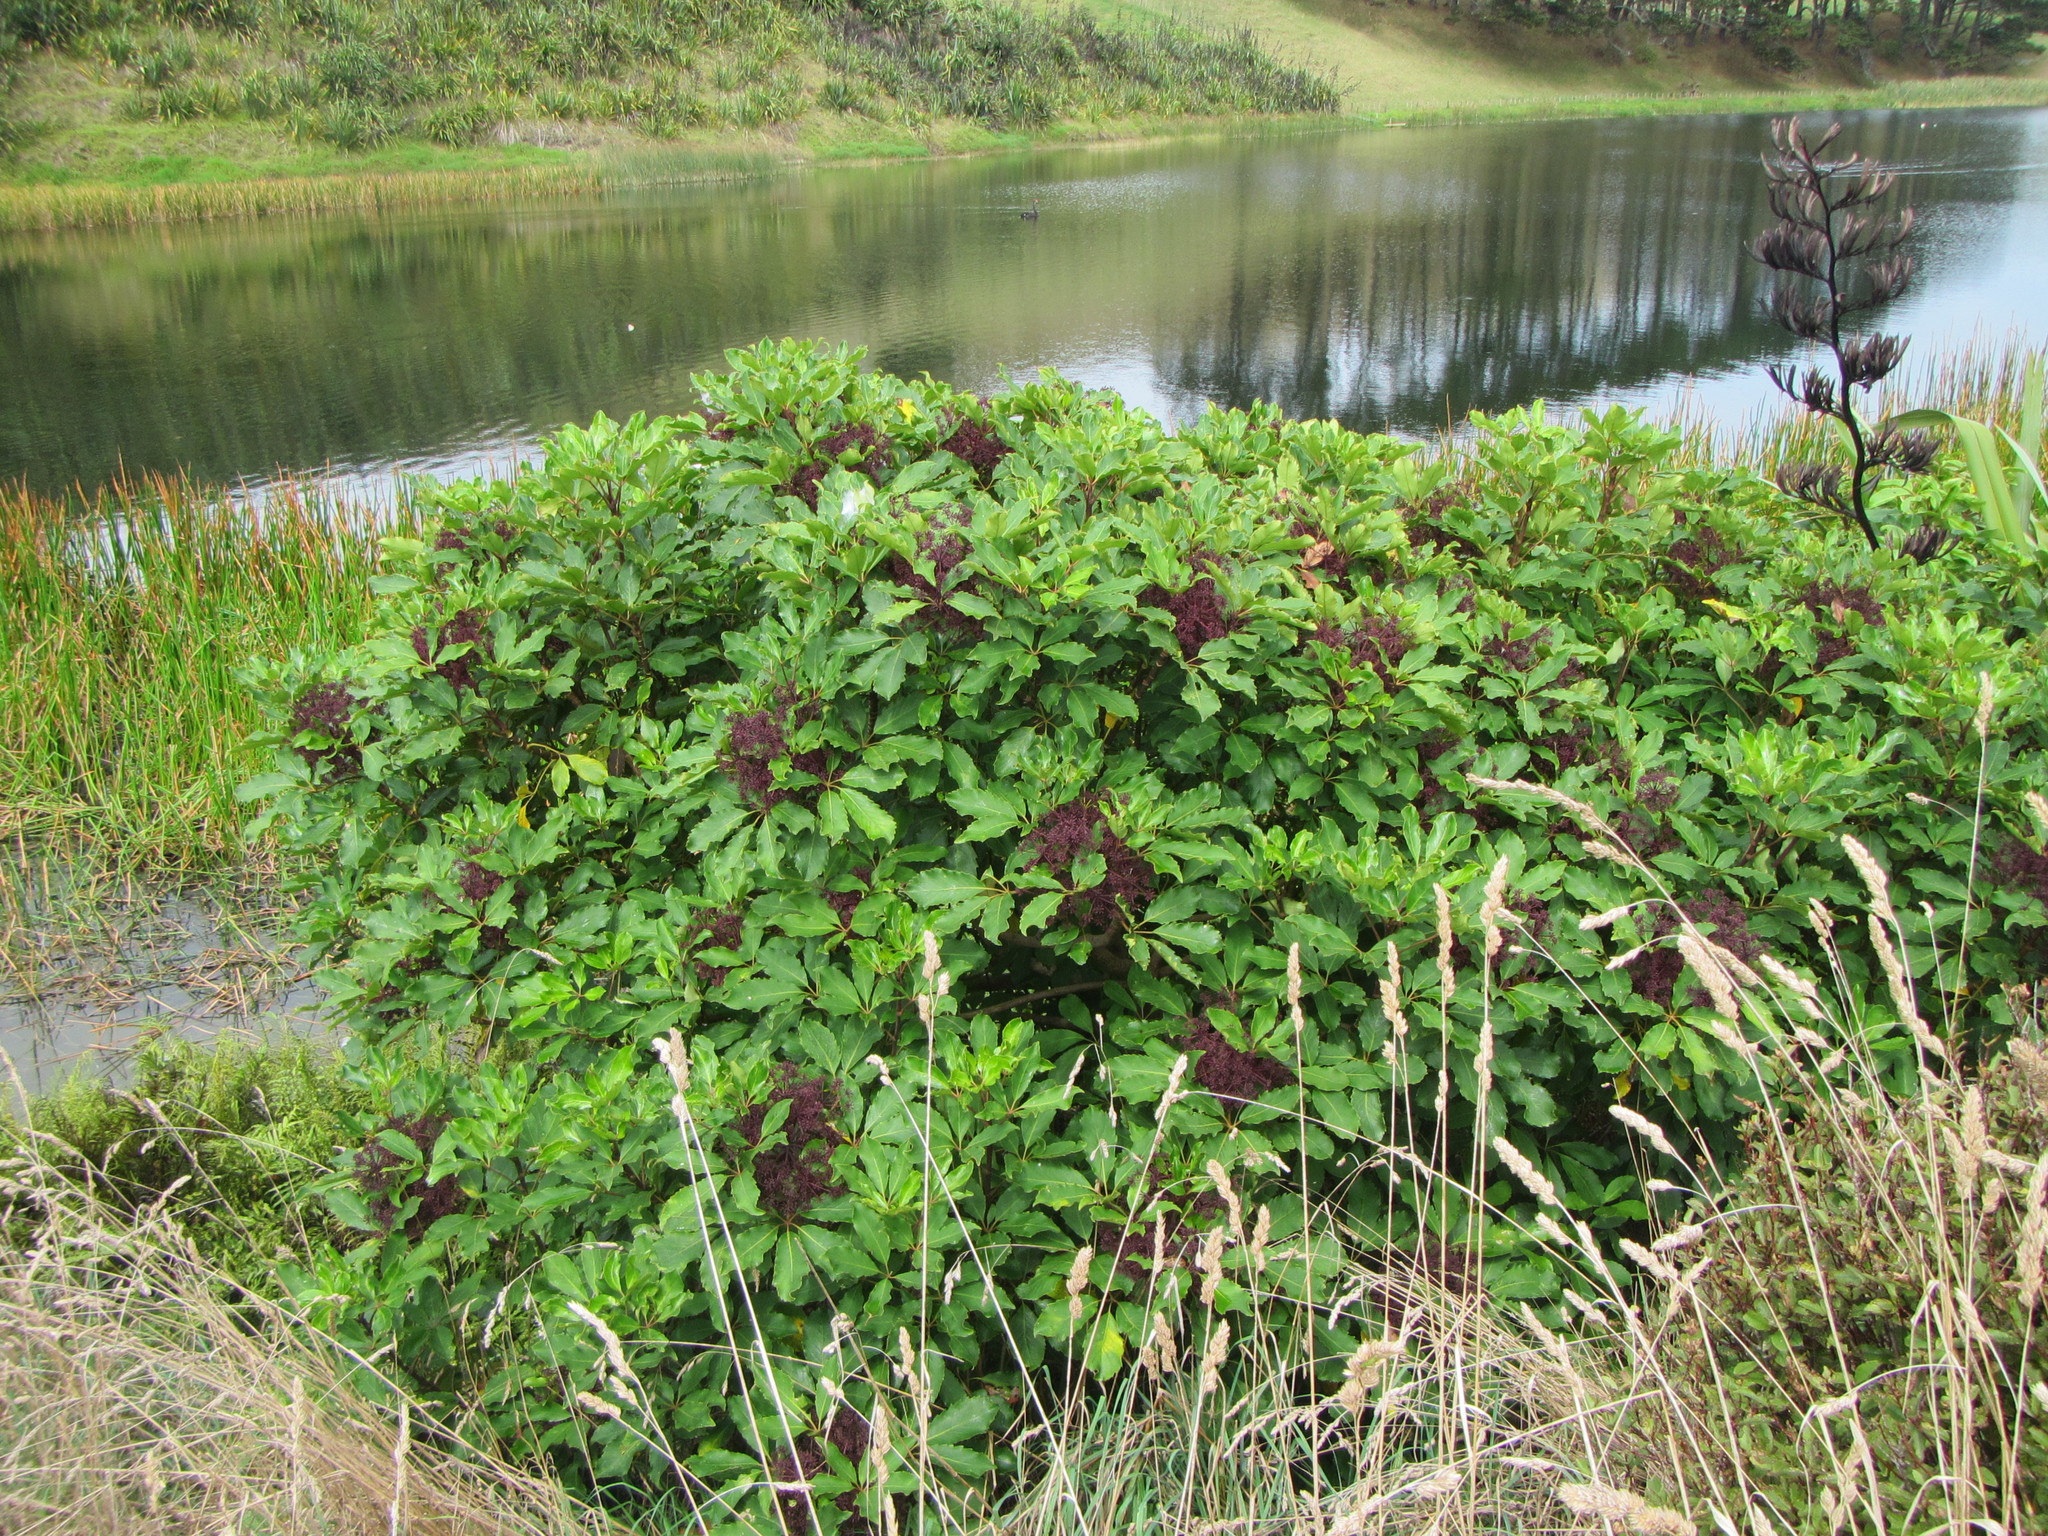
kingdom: Plantae
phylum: Tracheophyta
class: Magnoliopsida
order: Apiales
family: Araliaceae
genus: Neopanax
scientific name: Neopanax arboreus
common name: Five-fingers
